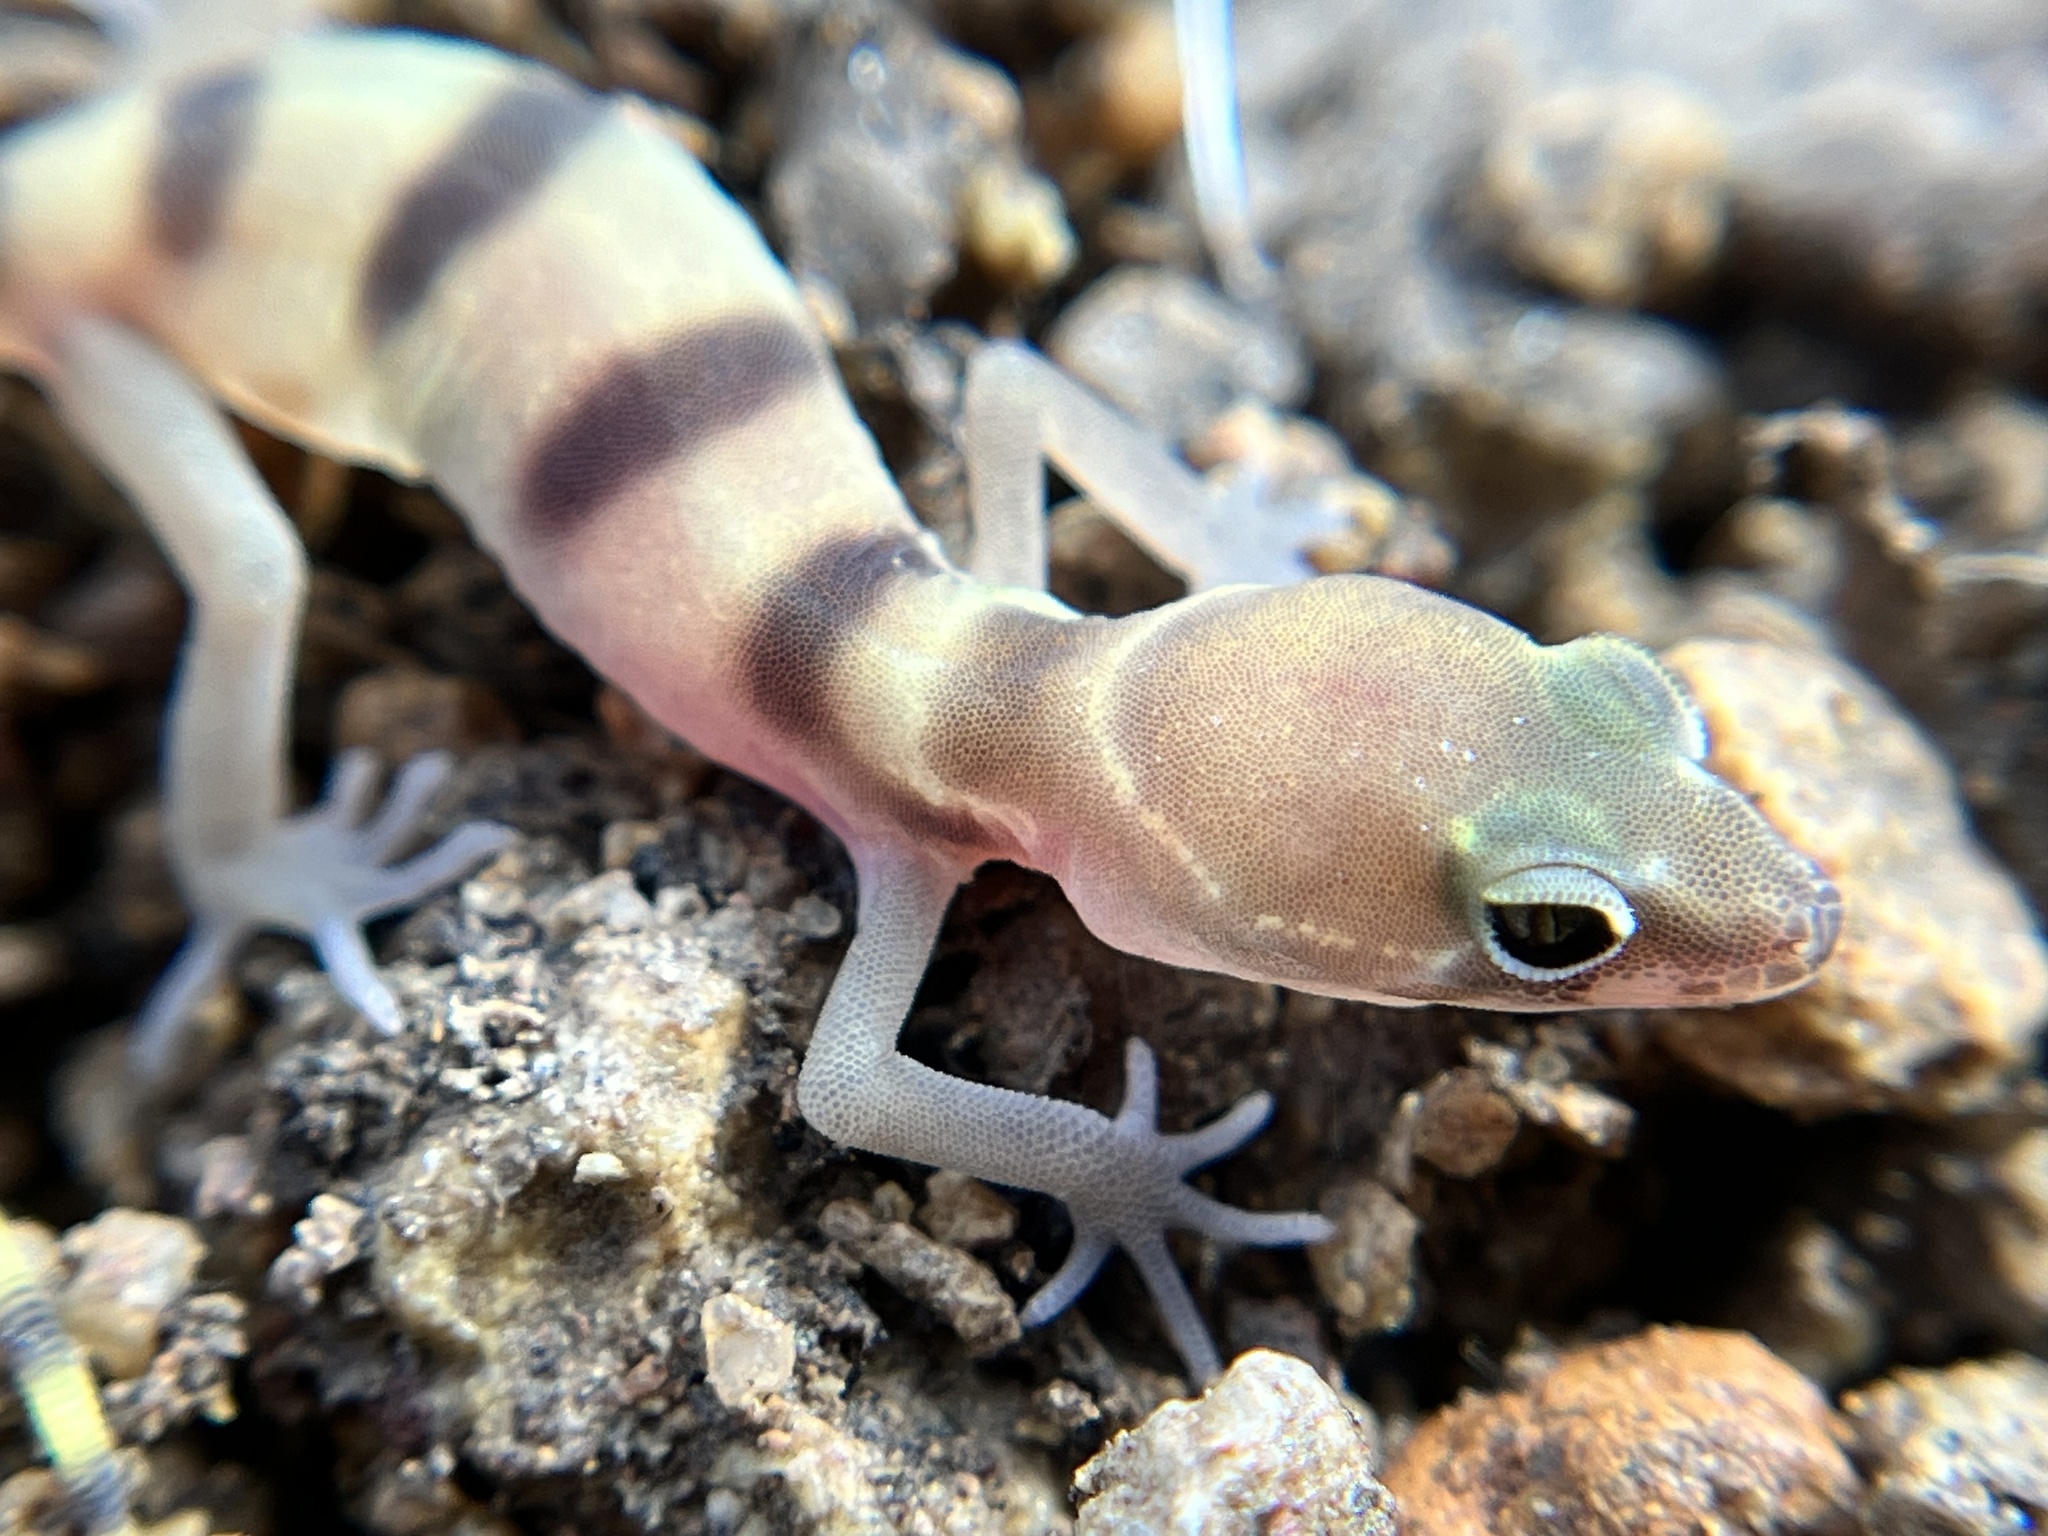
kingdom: Animalia
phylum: Chordata
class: Squamata
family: Eublepharidae
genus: Coleonyx
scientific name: Coleonyx variegatus
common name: Western banded gecko
